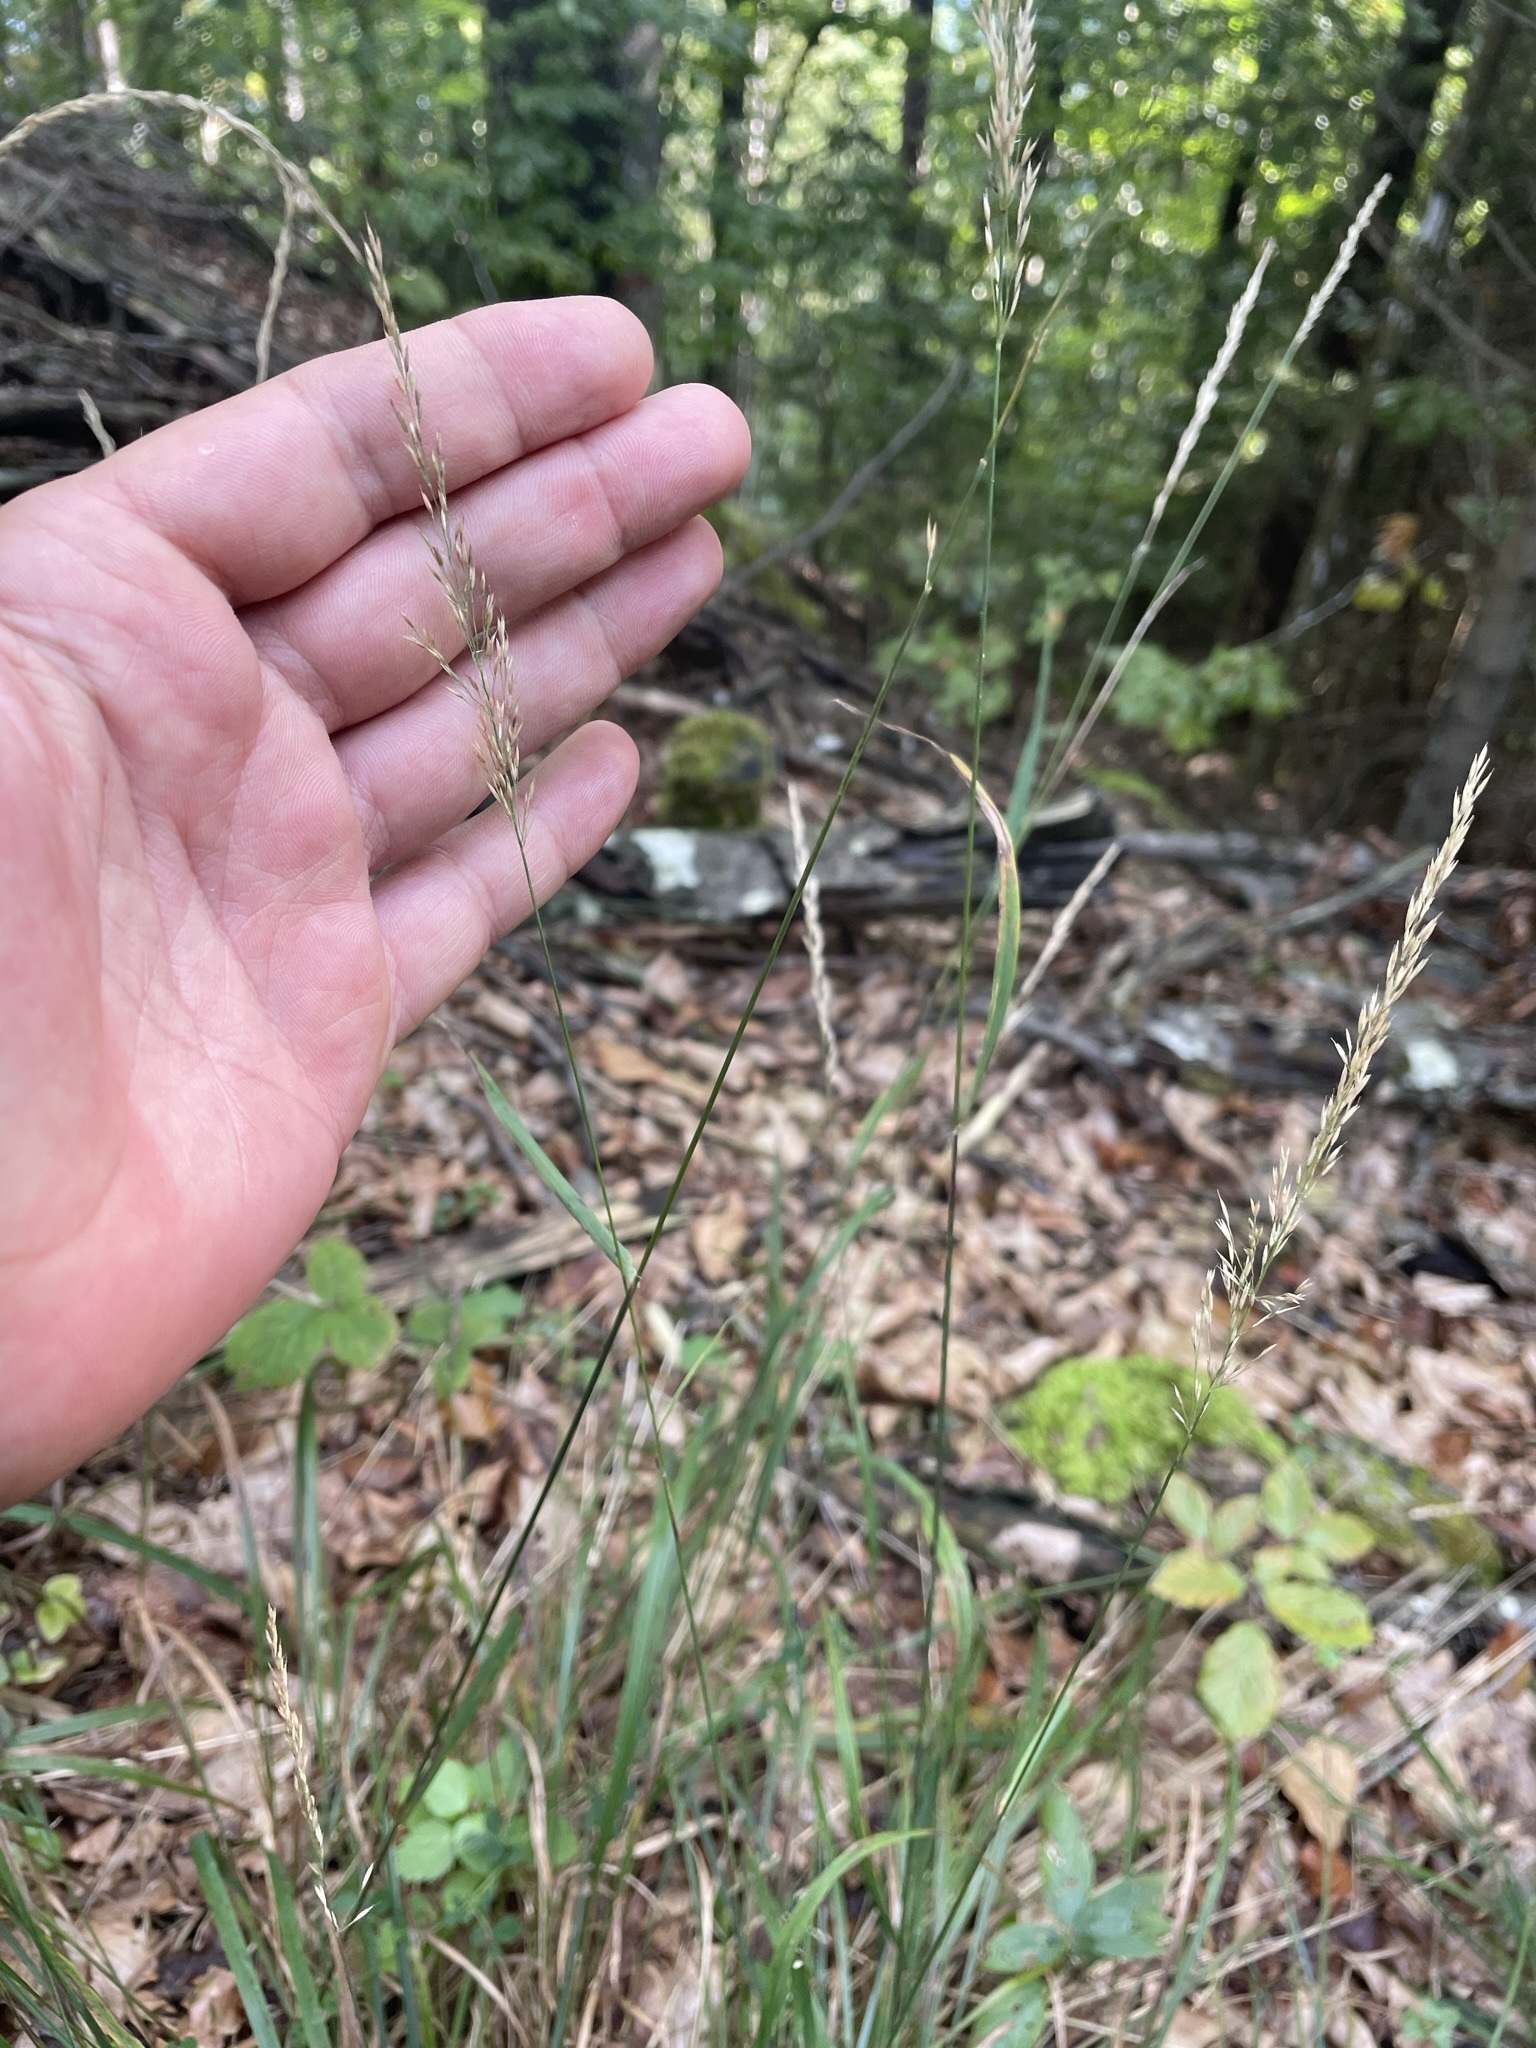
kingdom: Plantae
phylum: Tracheophyta
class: Liliopsida
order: Poales
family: Poaceae
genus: Calamagrostis
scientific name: Calamagrostis varia
